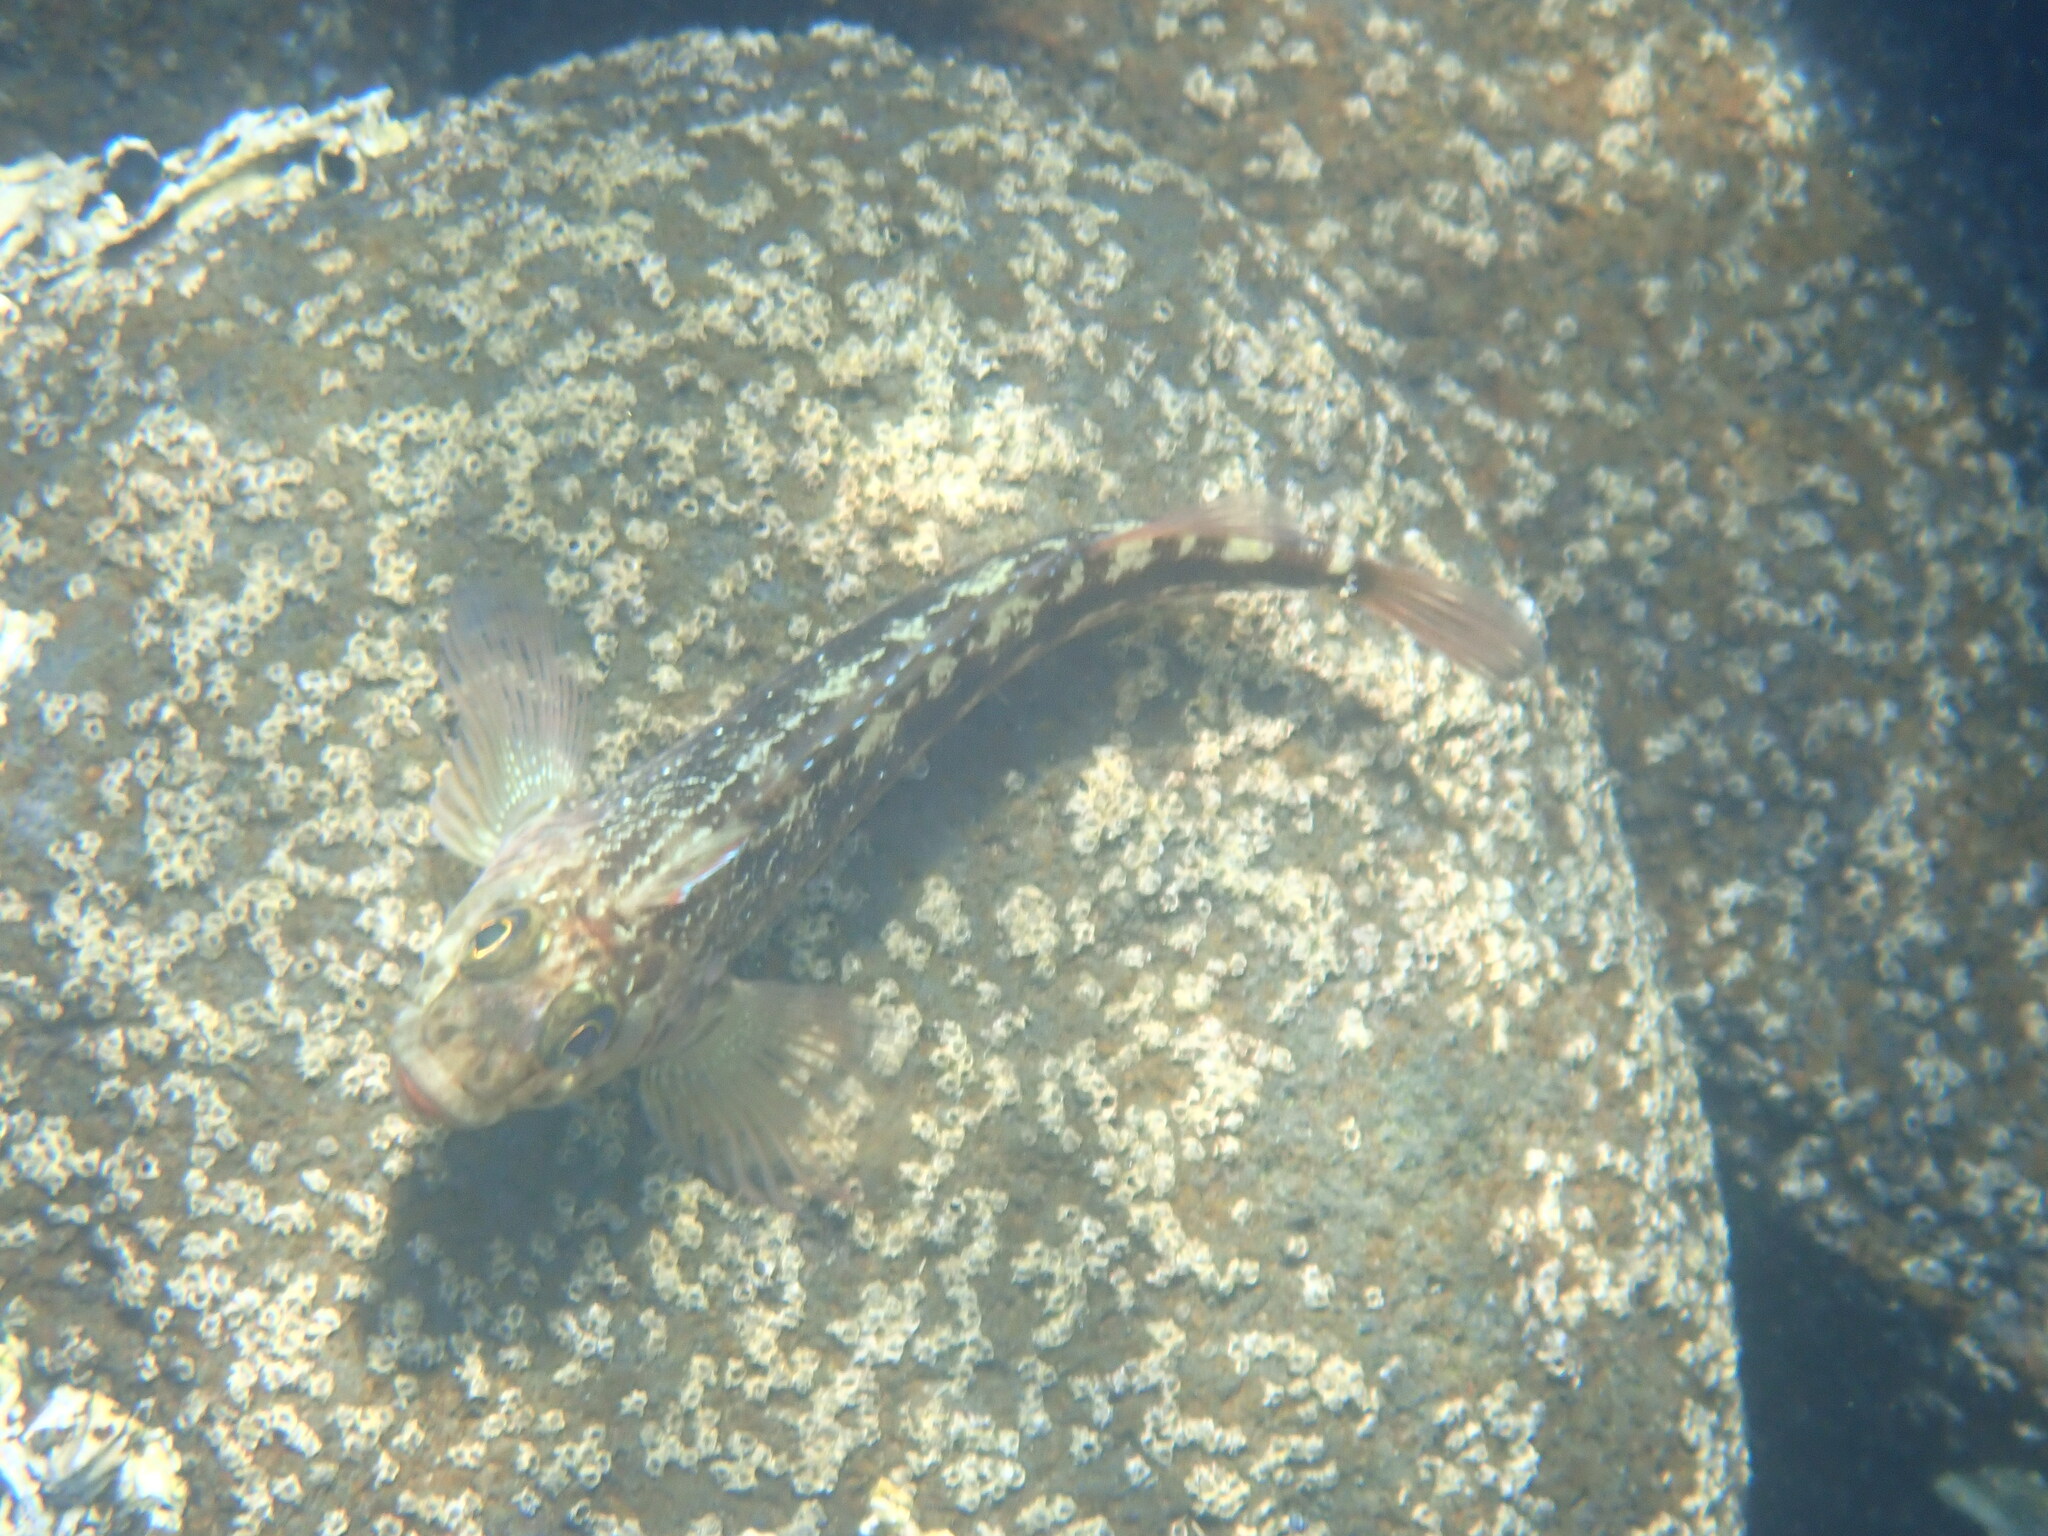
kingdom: Animalia
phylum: Chordata
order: Perciformes
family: Tripterygiidae
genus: Forsterygion
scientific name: Forsterygion varium
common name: Variable triplefin
